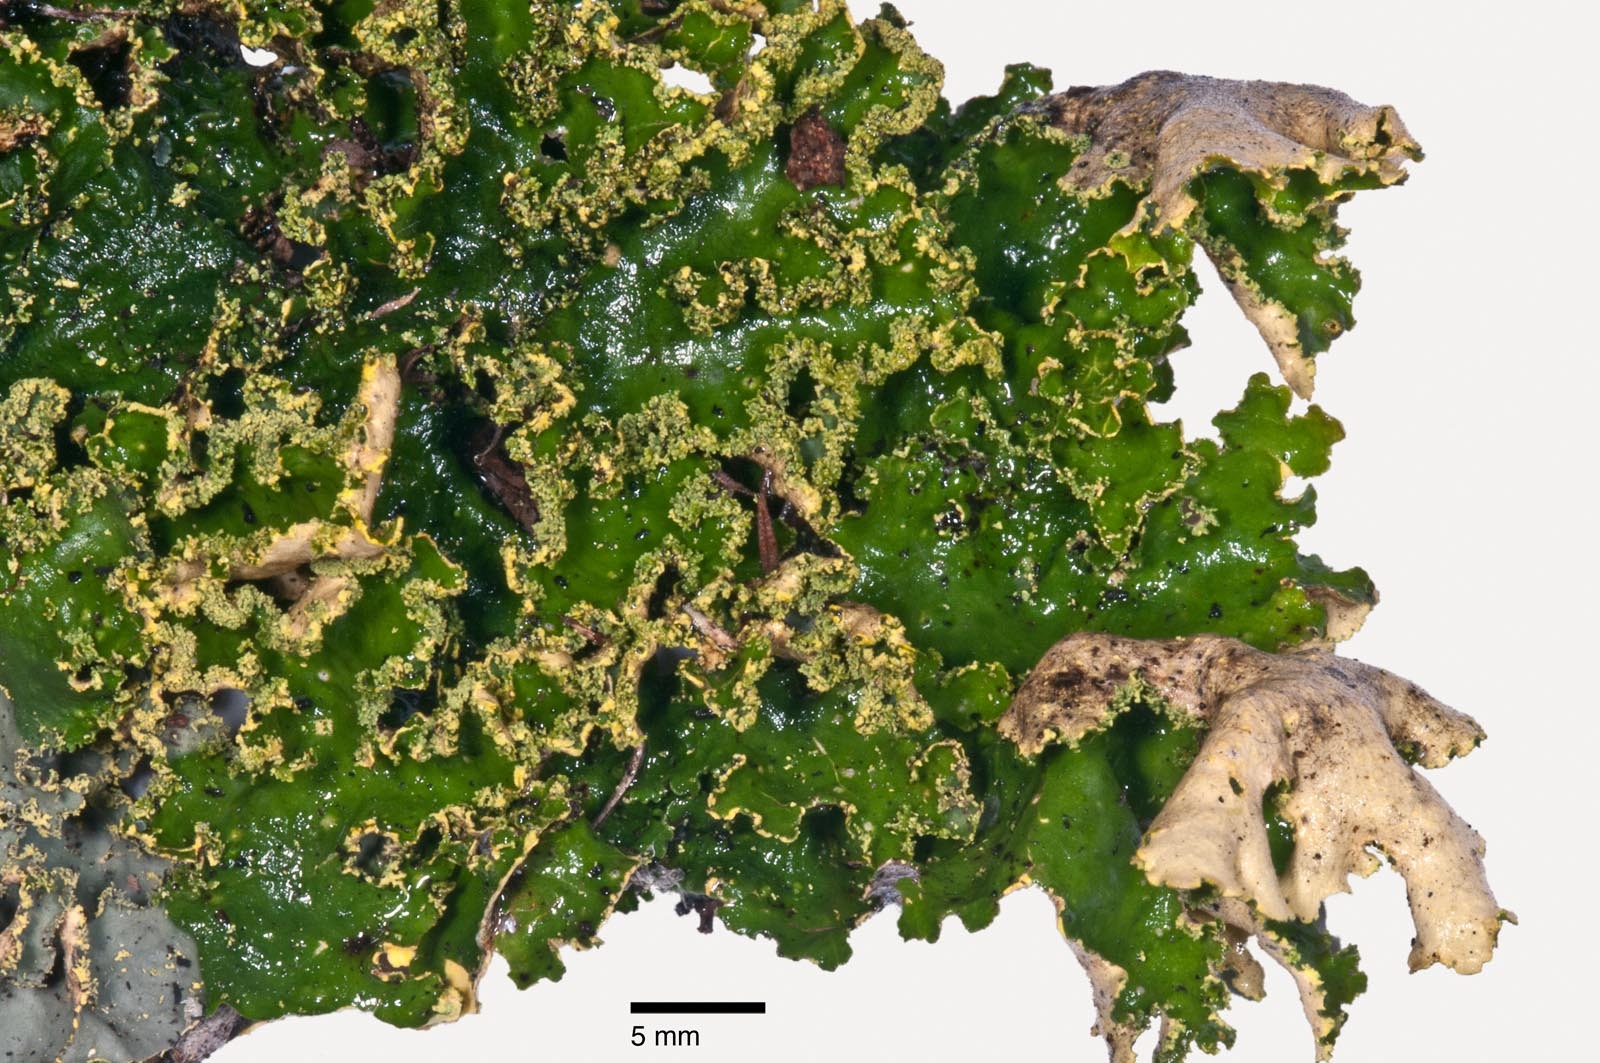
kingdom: Fungi
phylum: Ascomycota
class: Lecanoromycetes
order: Peltigerales
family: Lobariaceae
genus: Crocodia
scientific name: Crocodia poculifera
